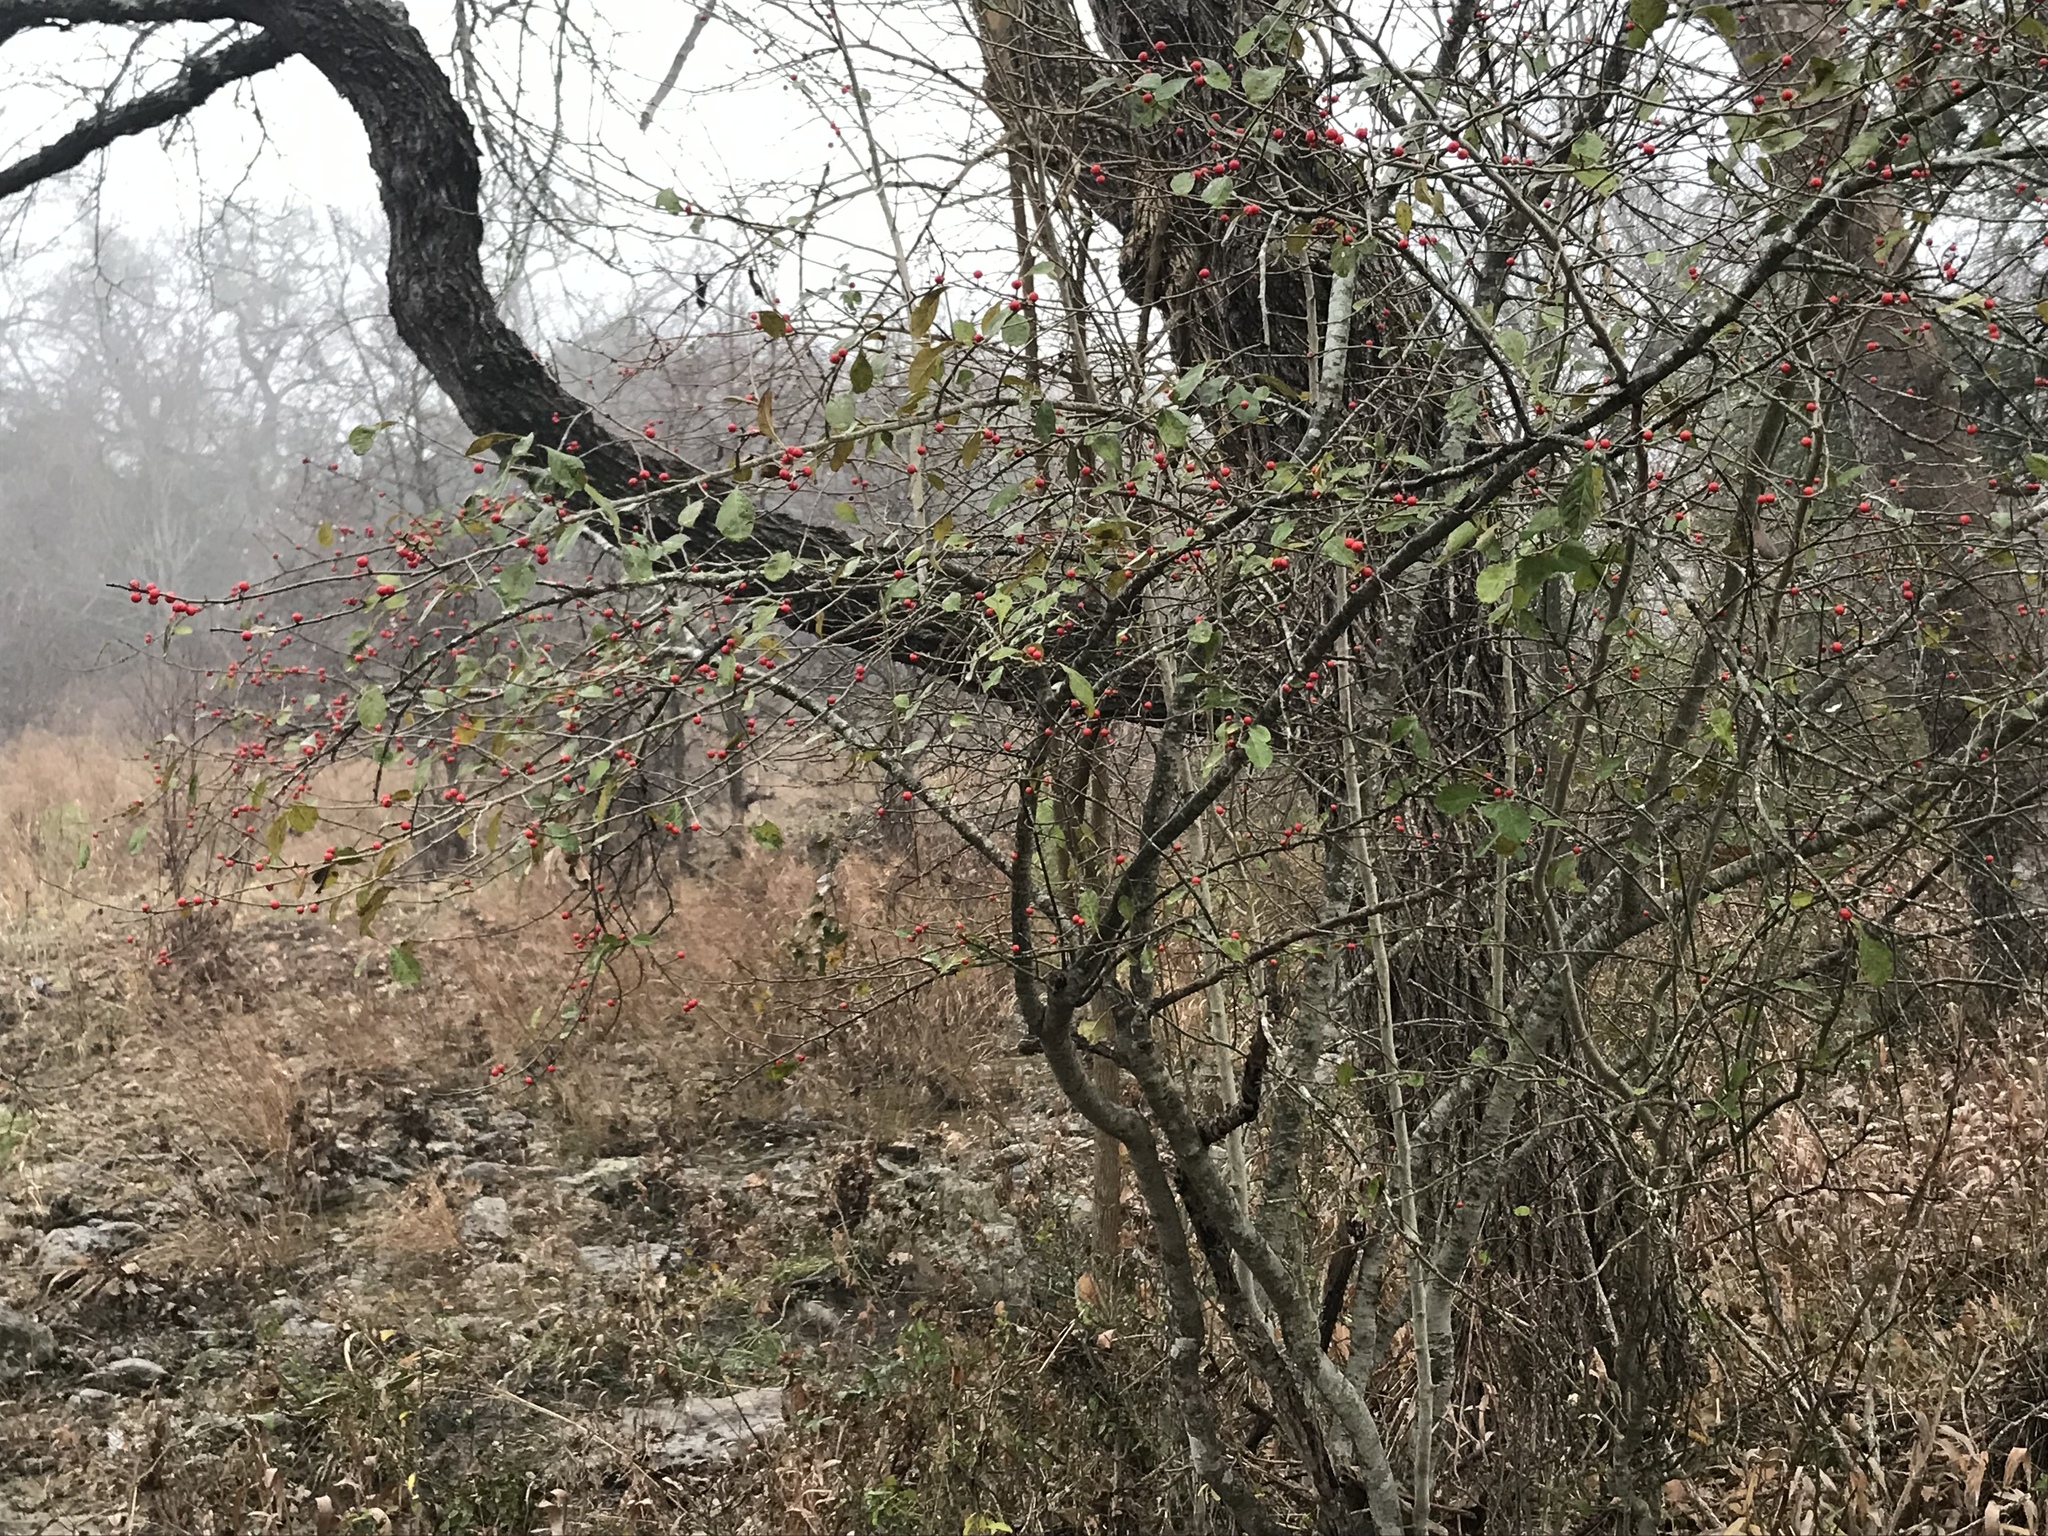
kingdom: Plantae
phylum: Tracheophyta
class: Magnoliopsida
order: Aquifoliales
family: Aquifoliaceae
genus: Ilex
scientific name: Ilex decidua
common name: Possum-haw
